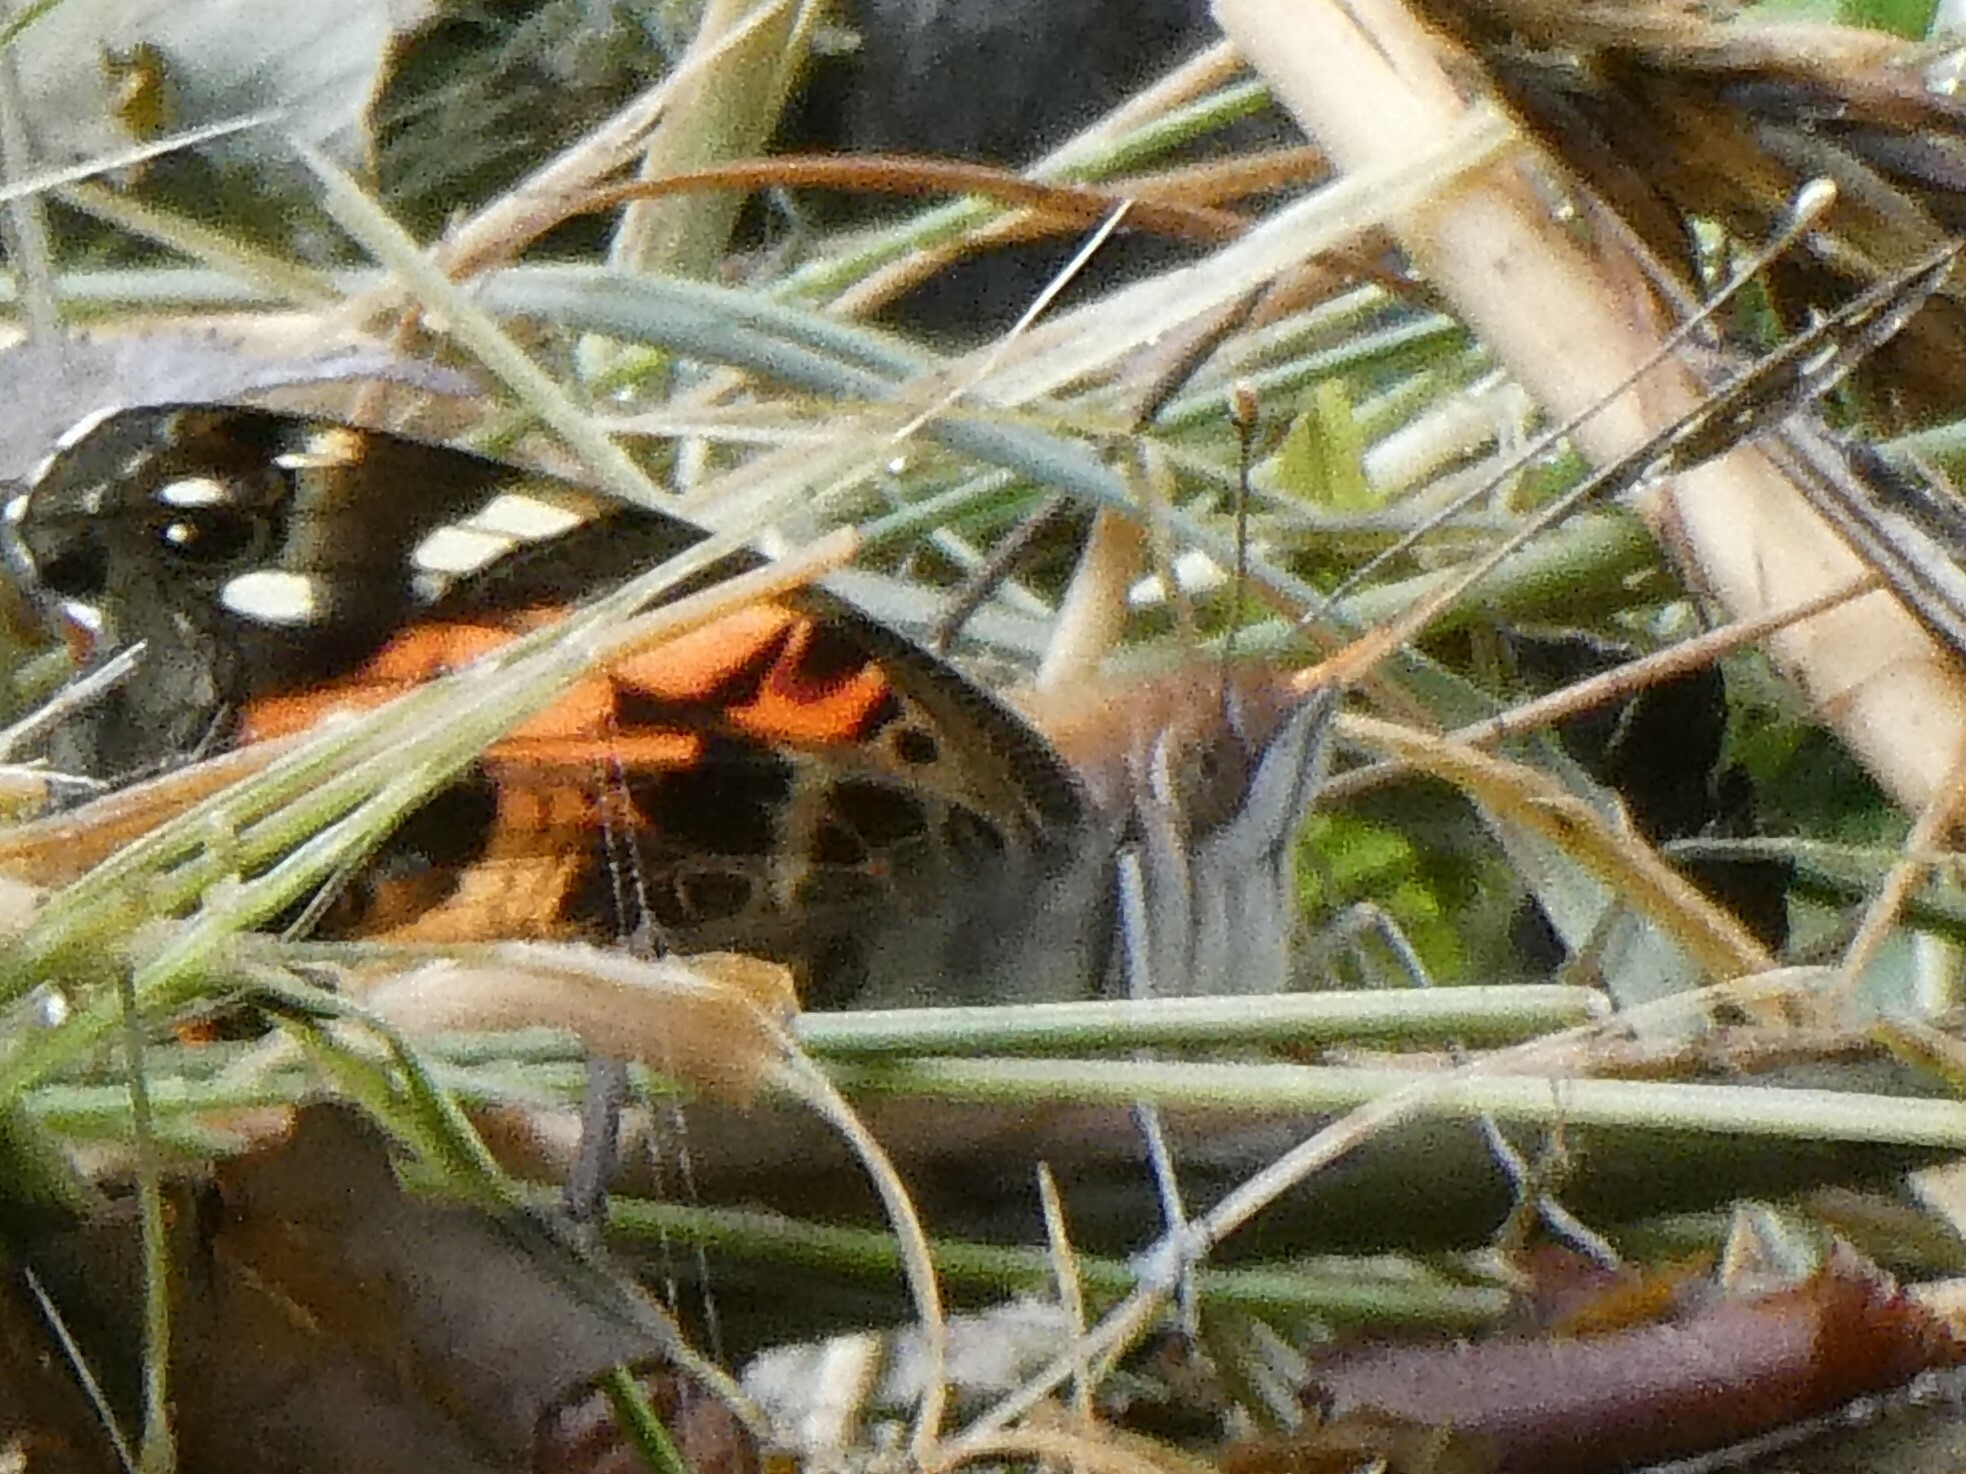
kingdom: Animalia
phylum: Arthropoda
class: Insecta
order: Lepidoptera
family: Nymphalidae
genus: Vanessa
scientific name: Vanessa virginiensis
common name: American lady
